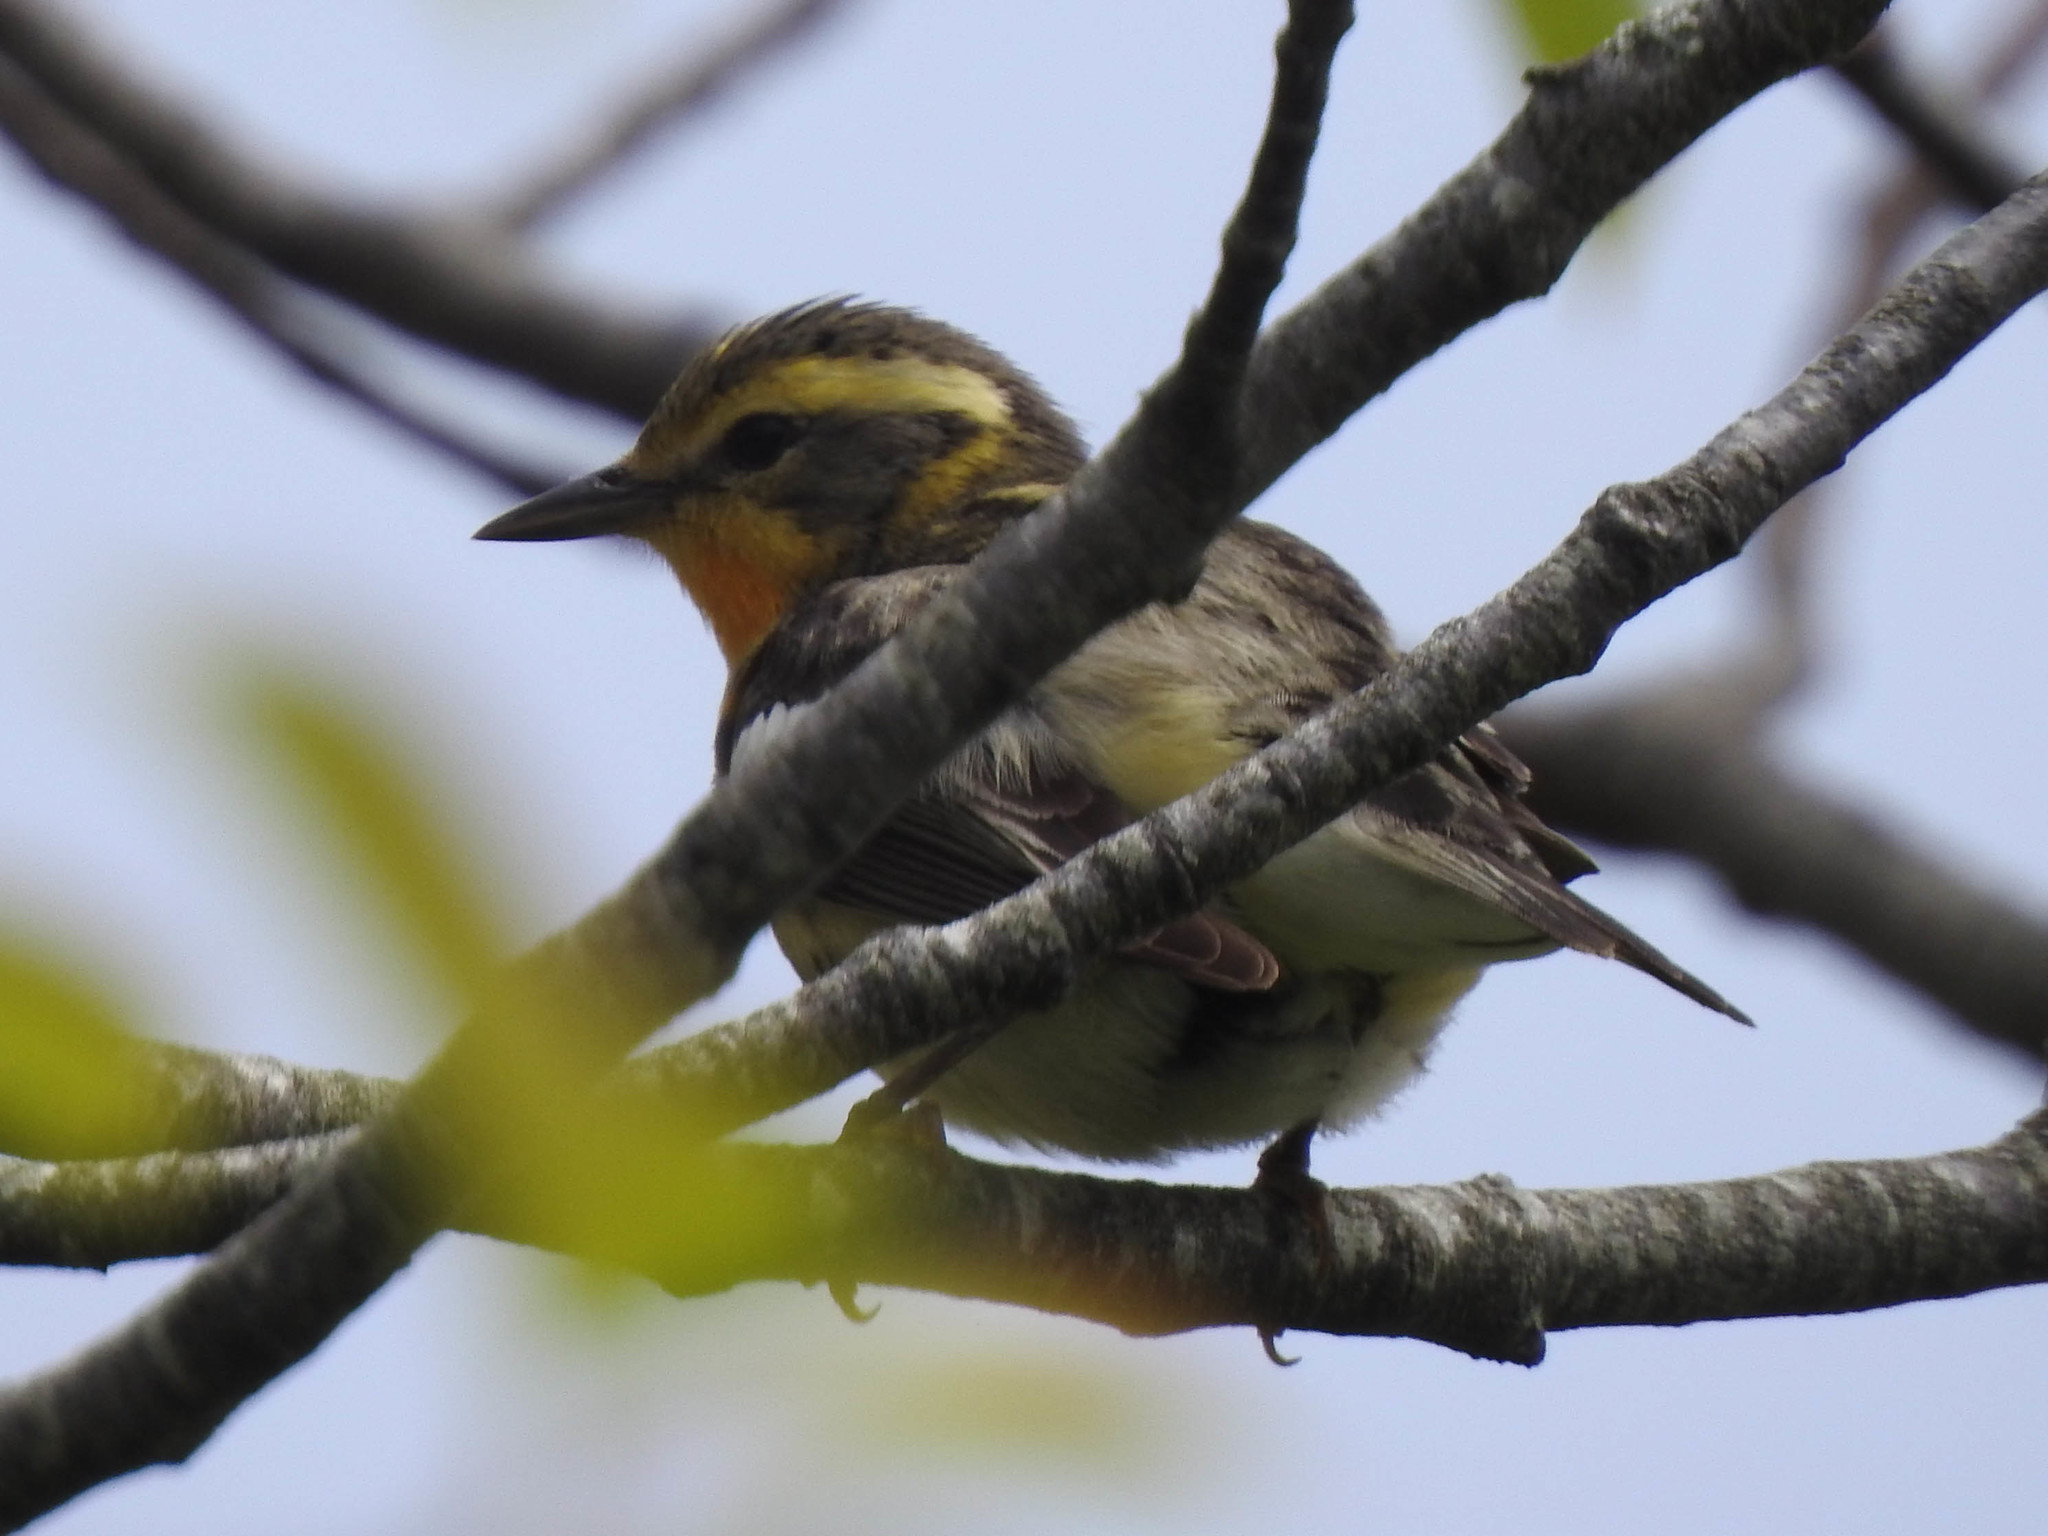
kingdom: Animalia
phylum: Chordata
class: Aves
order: Passeriformes
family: Parulidae
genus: Setophaga
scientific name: Setophaga fusca
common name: Blackburnian warbler
